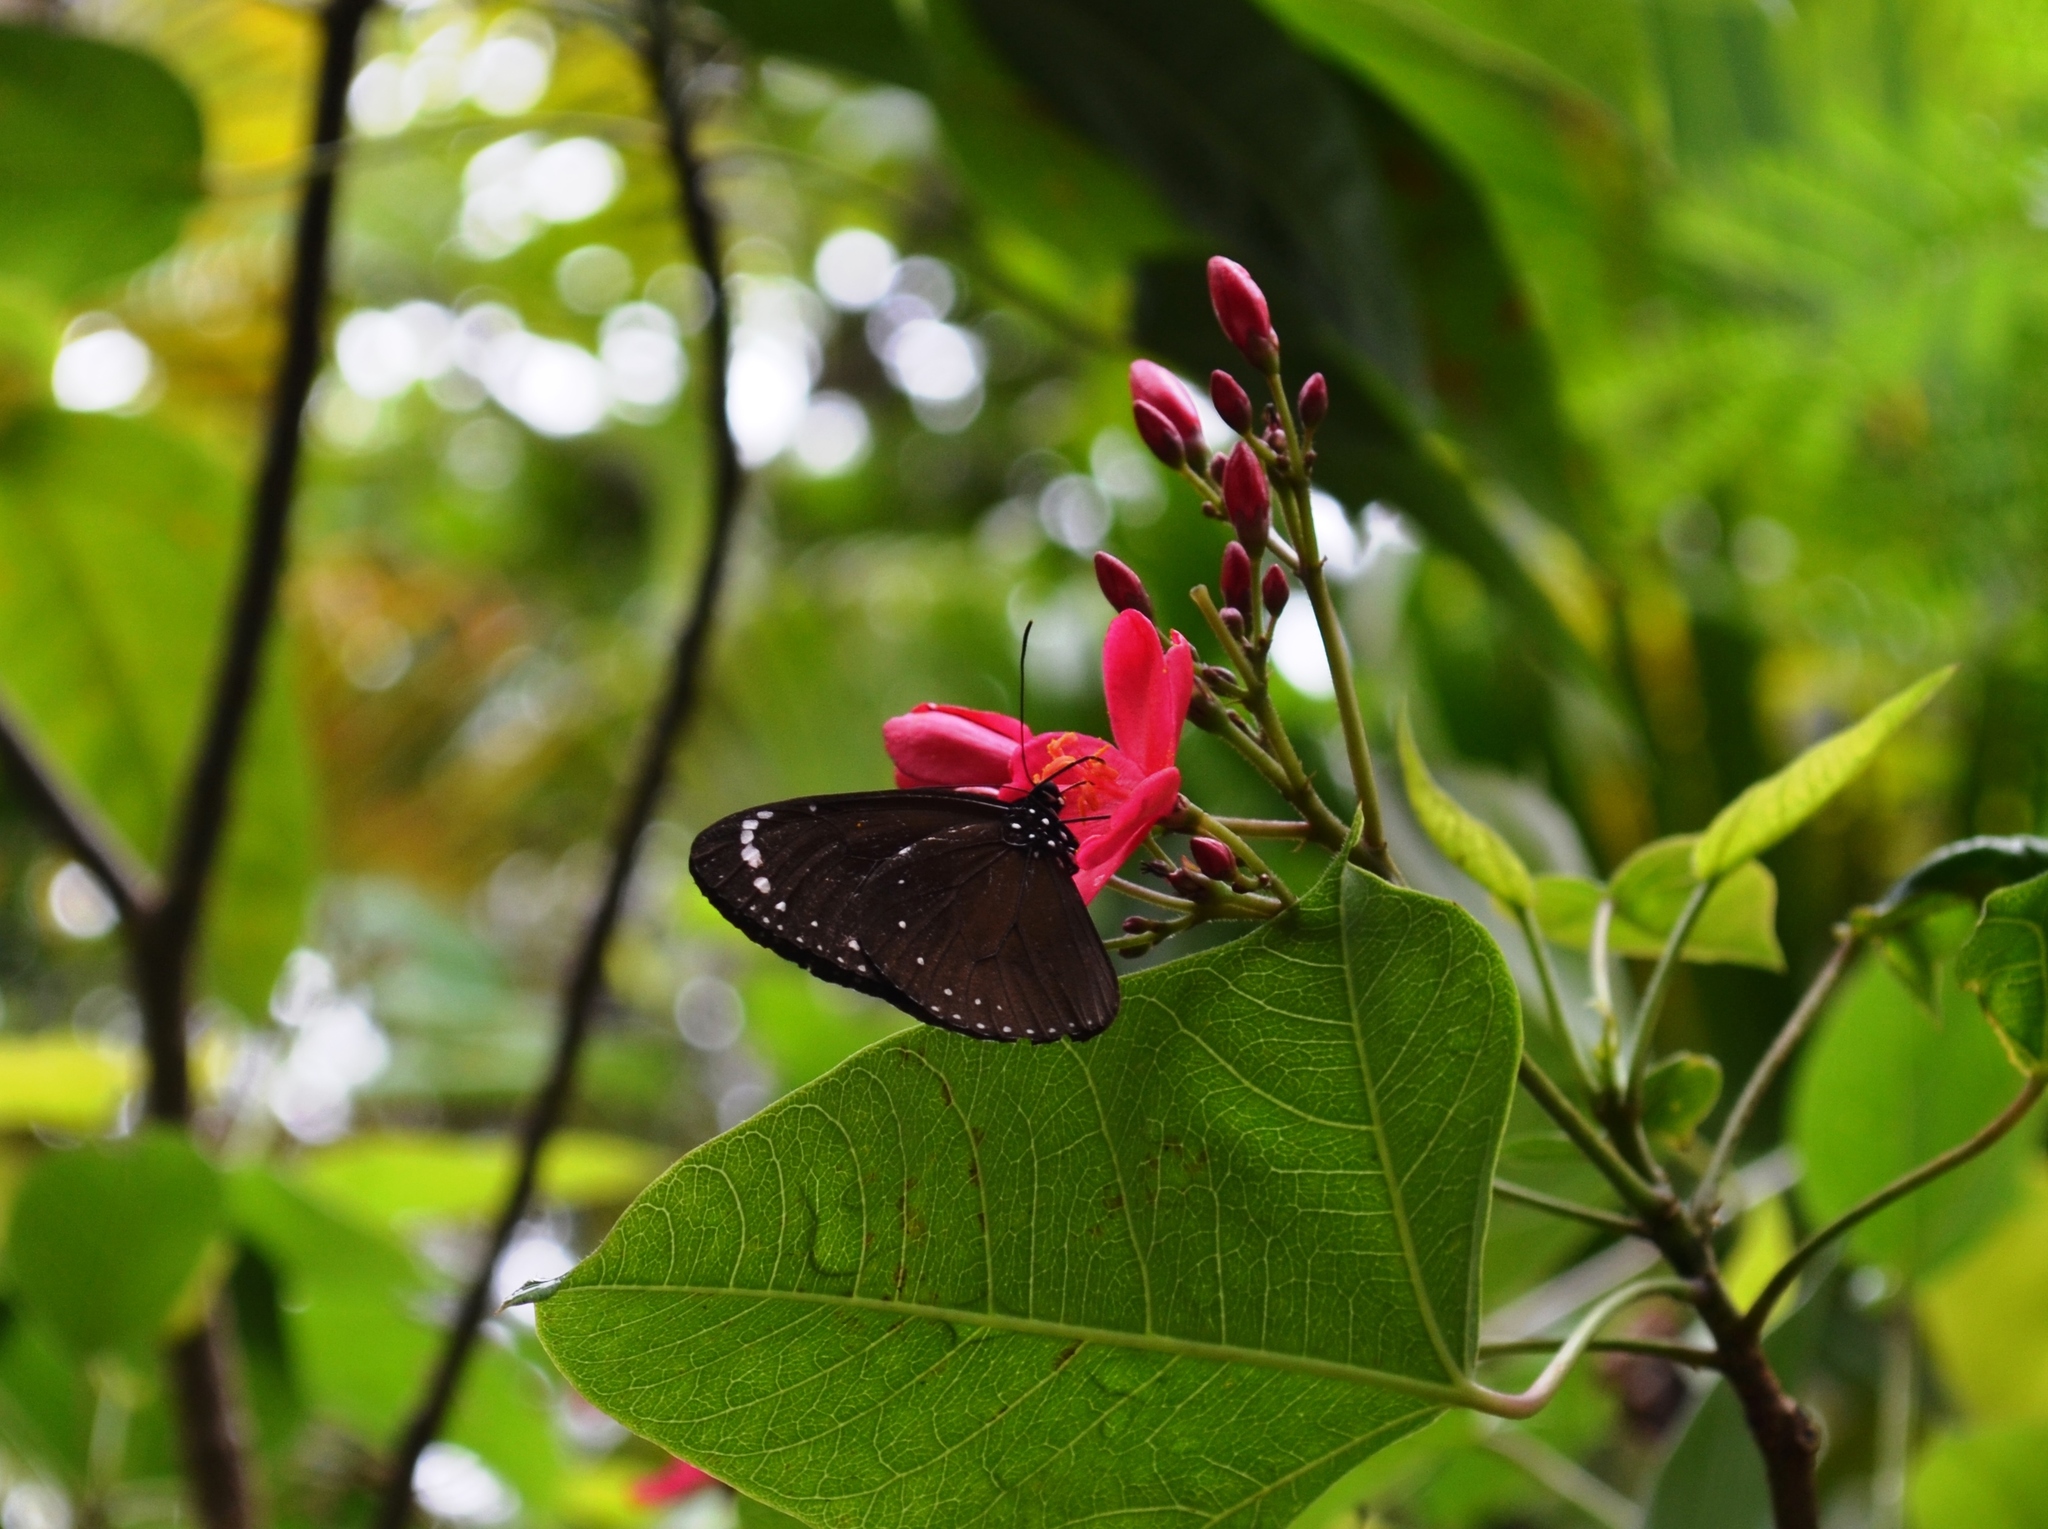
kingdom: Animalia
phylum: Arthropoda
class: Insecta
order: Lepidoptera
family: Nymphalidae
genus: Euploea
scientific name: Euploea tulliolus
